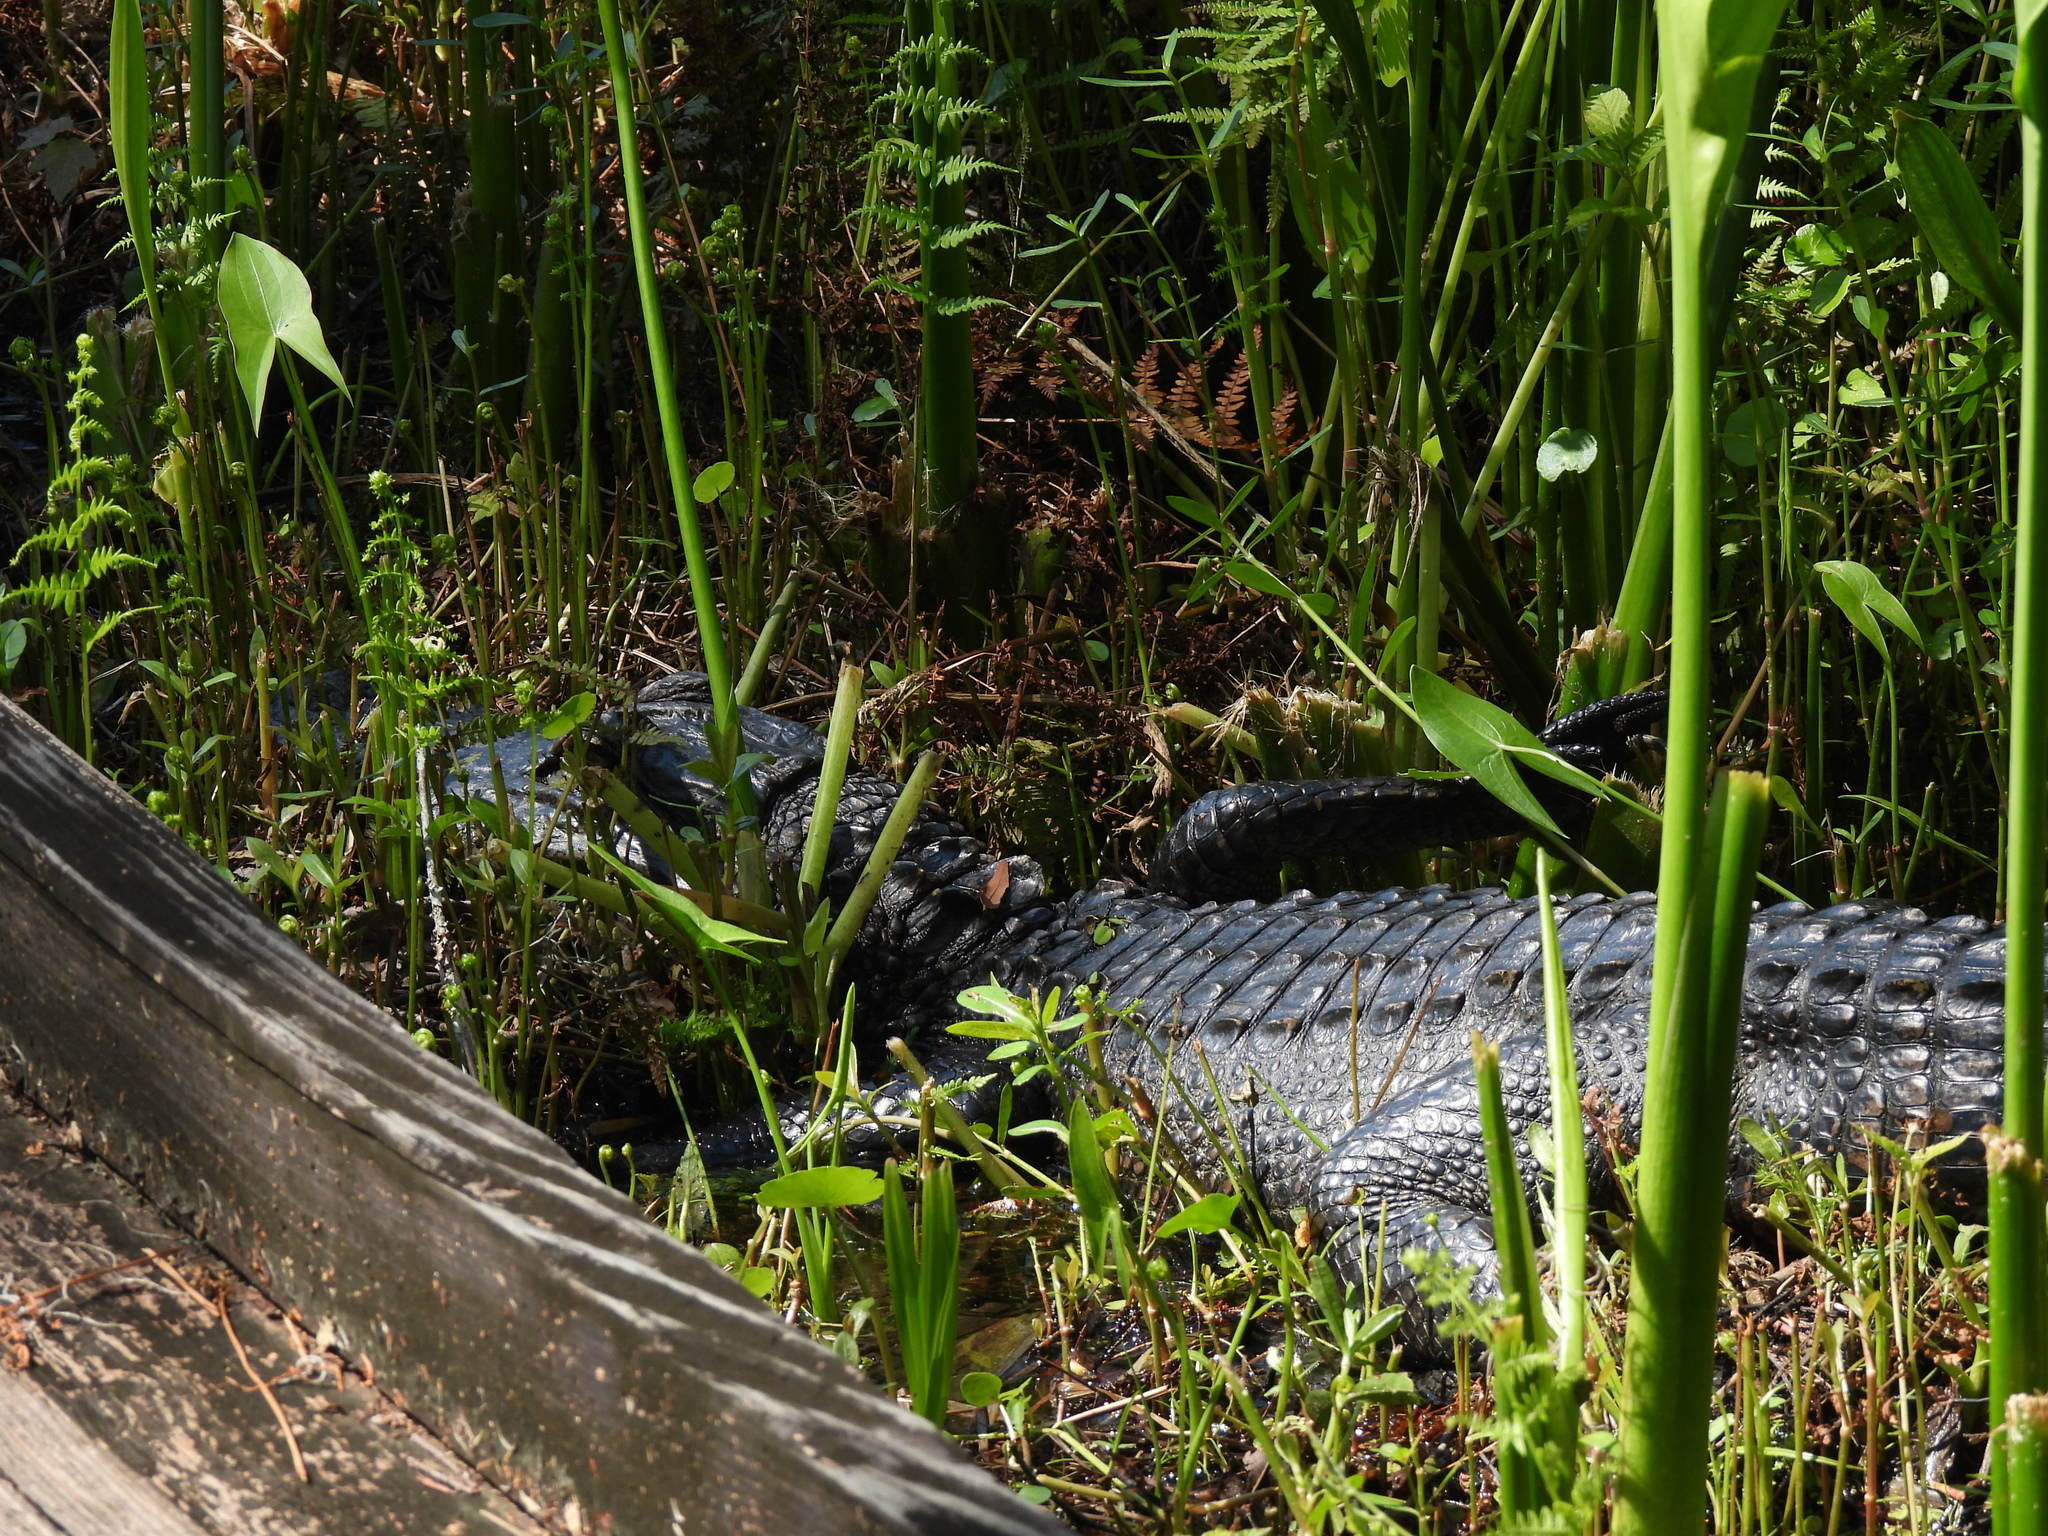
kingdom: Animalia
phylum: Chordata
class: Crocodylia
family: Alligatoridae
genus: Alligator
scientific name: Alligator mississippiensis
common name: American alligator
